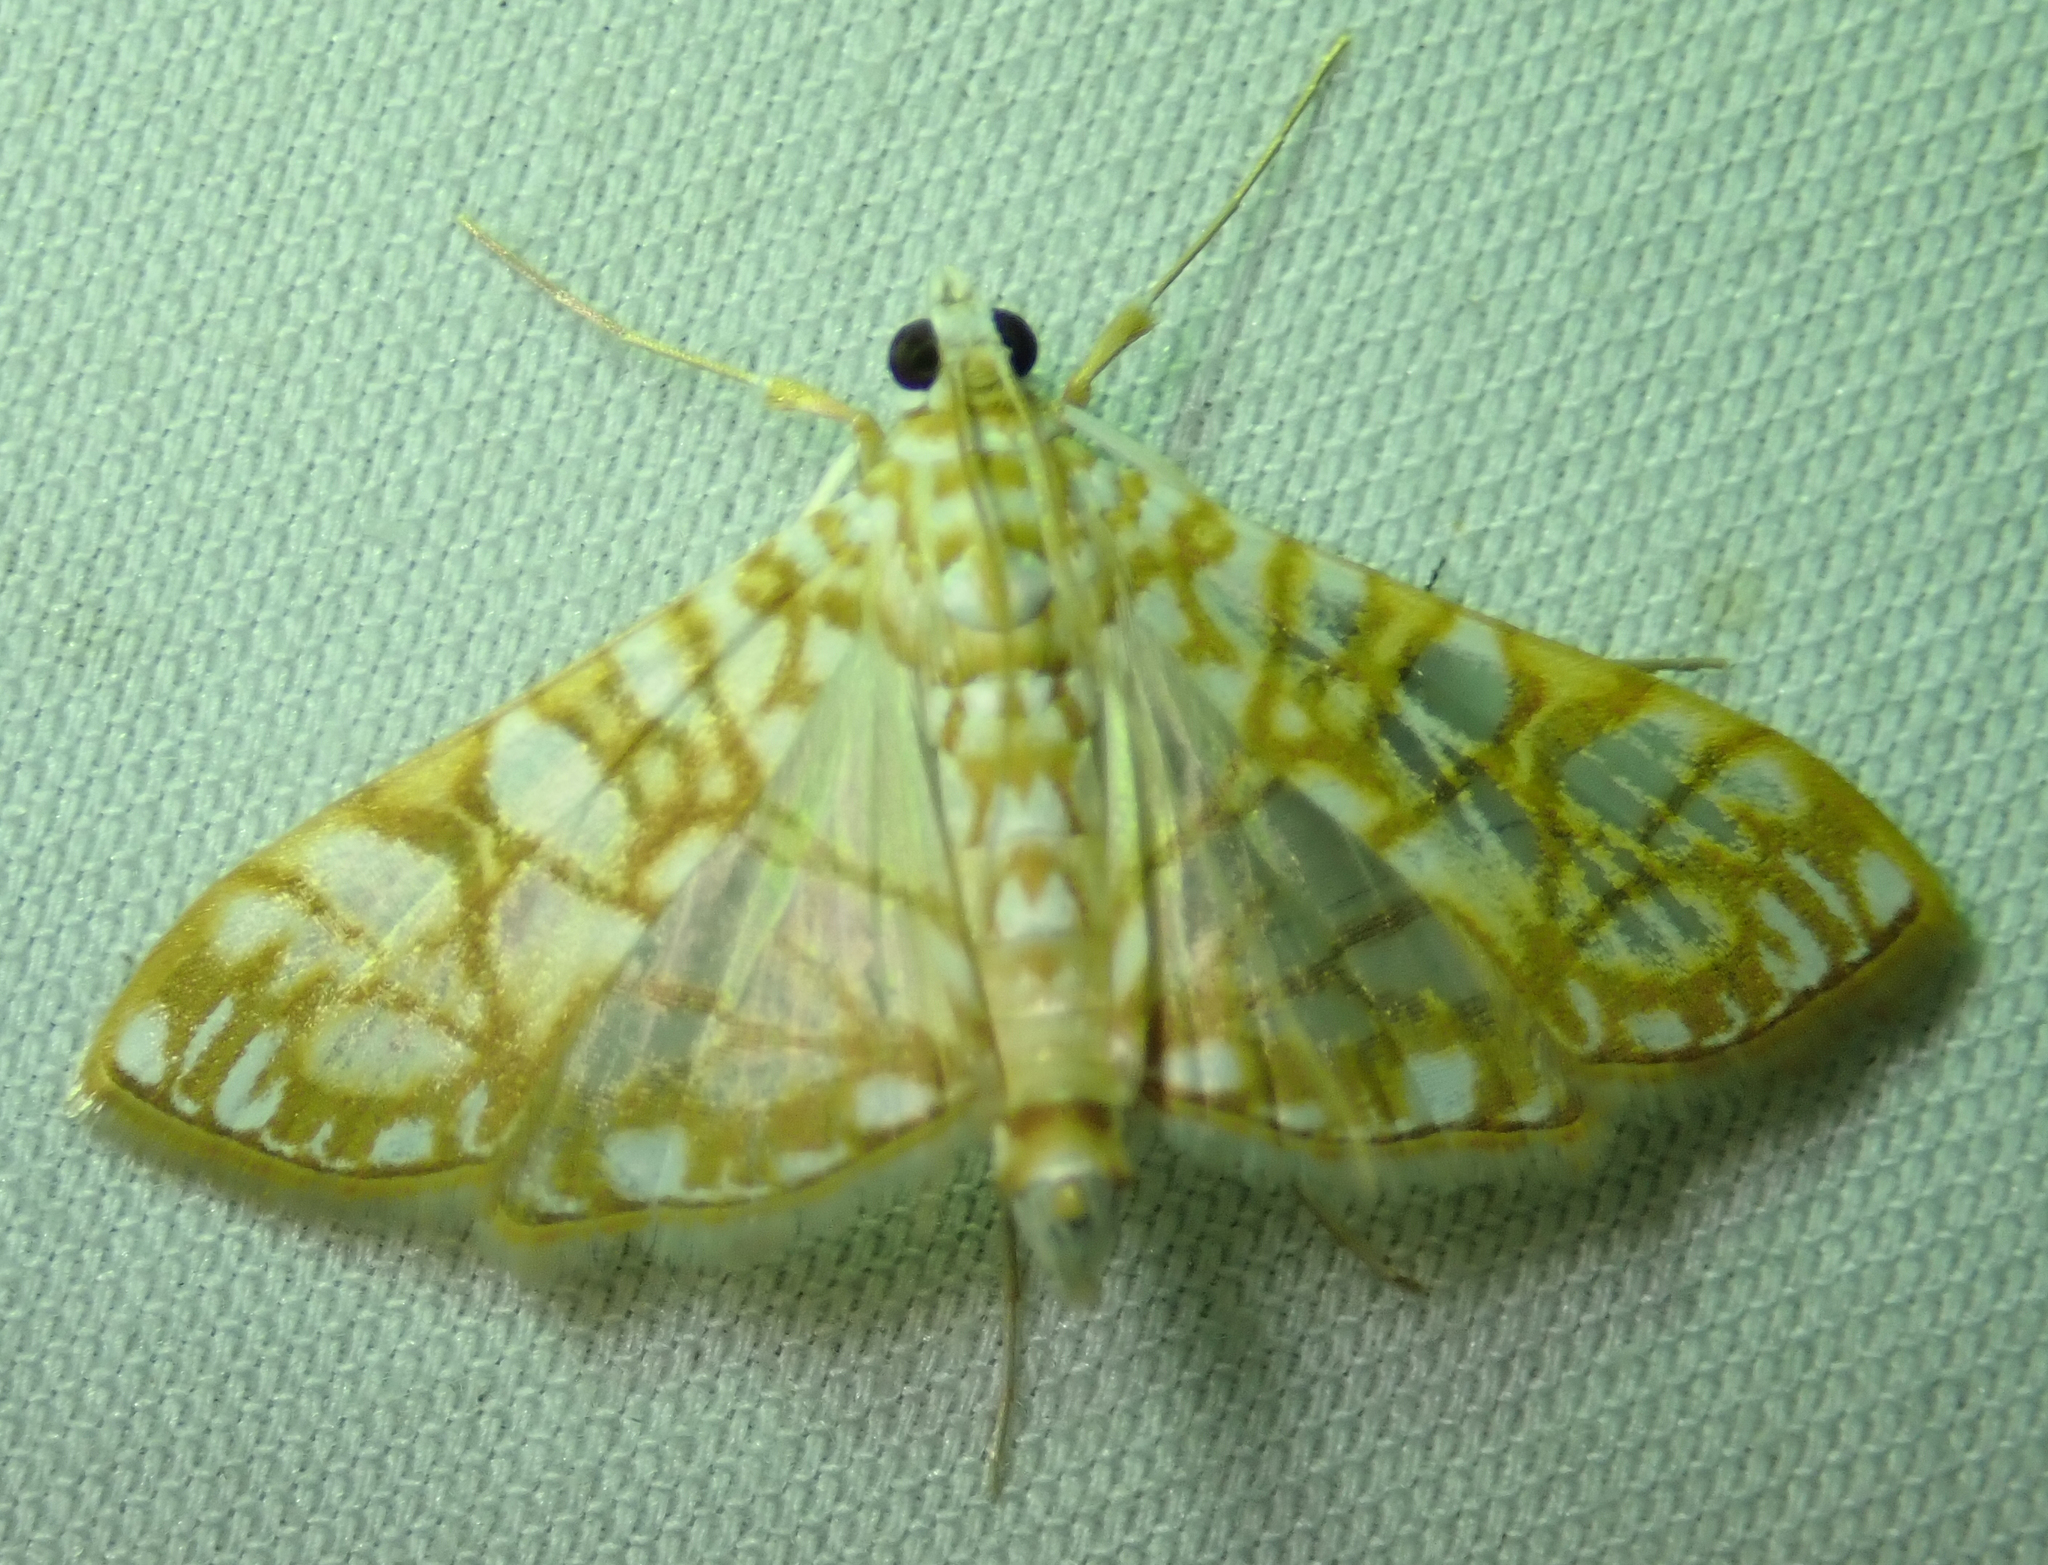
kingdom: Animalia
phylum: Arthropoda
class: Insecta
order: Lepidoptera
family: Crambidae
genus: Synclera
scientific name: Synclera traducalis
